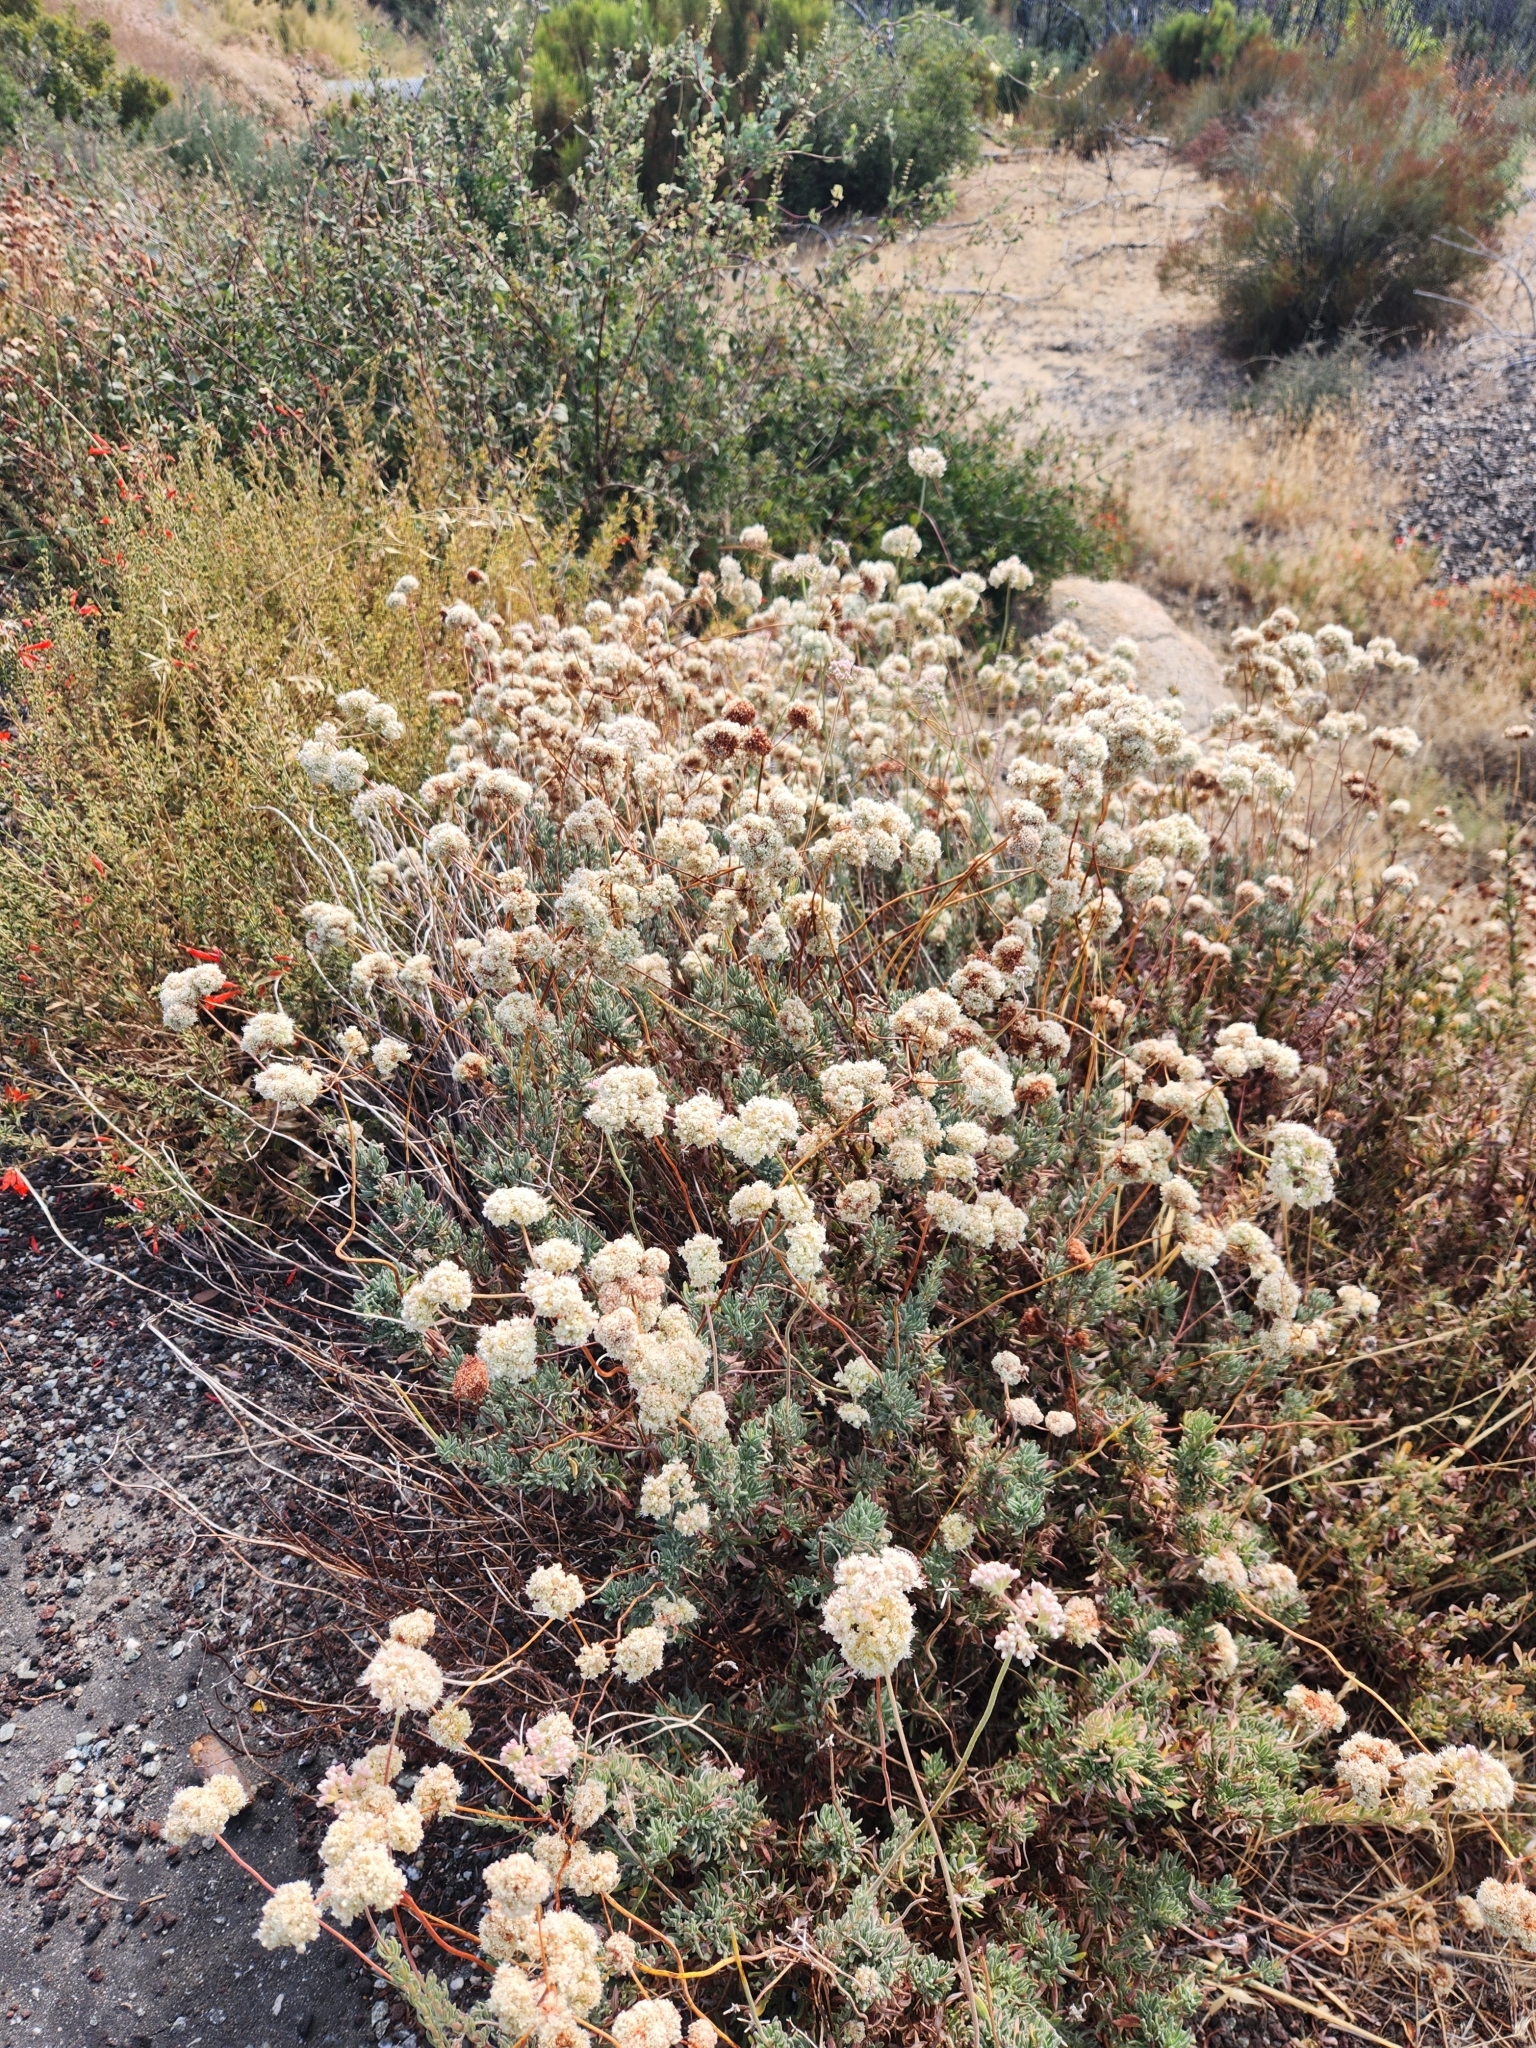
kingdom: Plantae
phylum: Tracheophyta
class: Magnoliopsida
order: Caryophyllales
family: Polygonaceae
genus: Eriogonum
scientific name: Eriogonum fasciculatum
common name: California wild buckwheat
